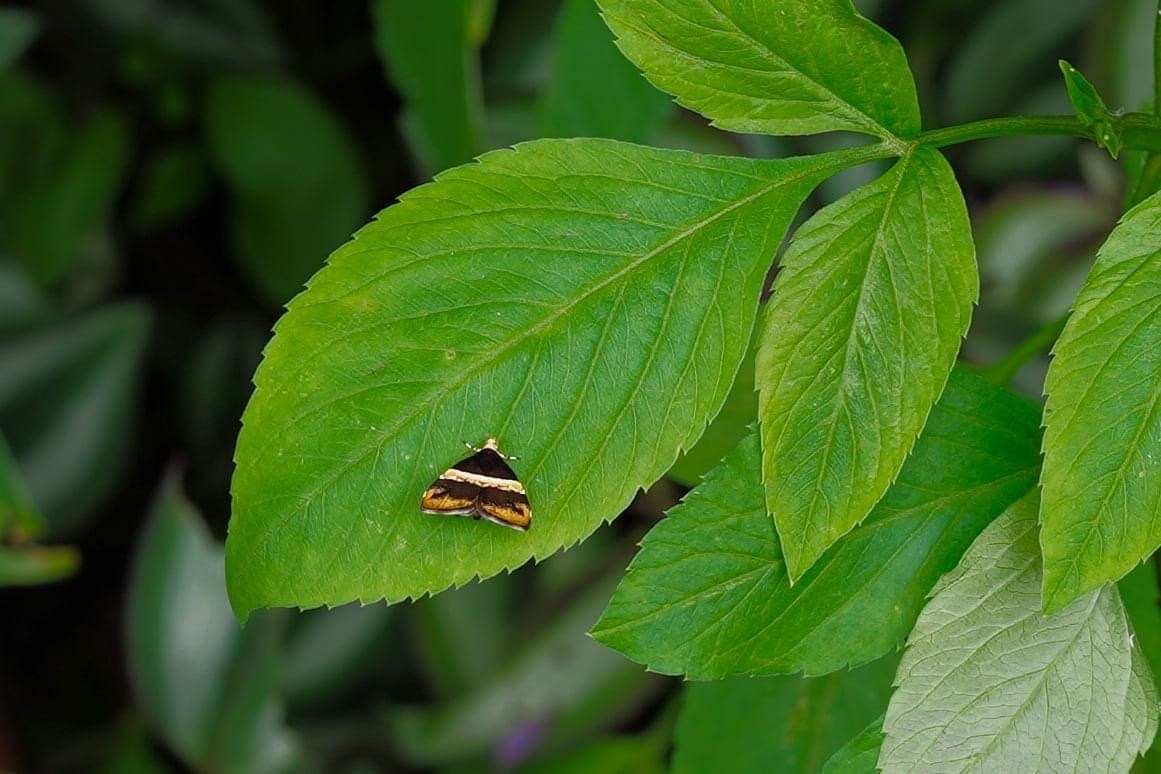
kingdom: Animalia
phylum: Arthropoda
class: Insecta
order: Lepidoptera
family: Choreutidae
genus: Choreutis
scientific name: Choreutis basalis
